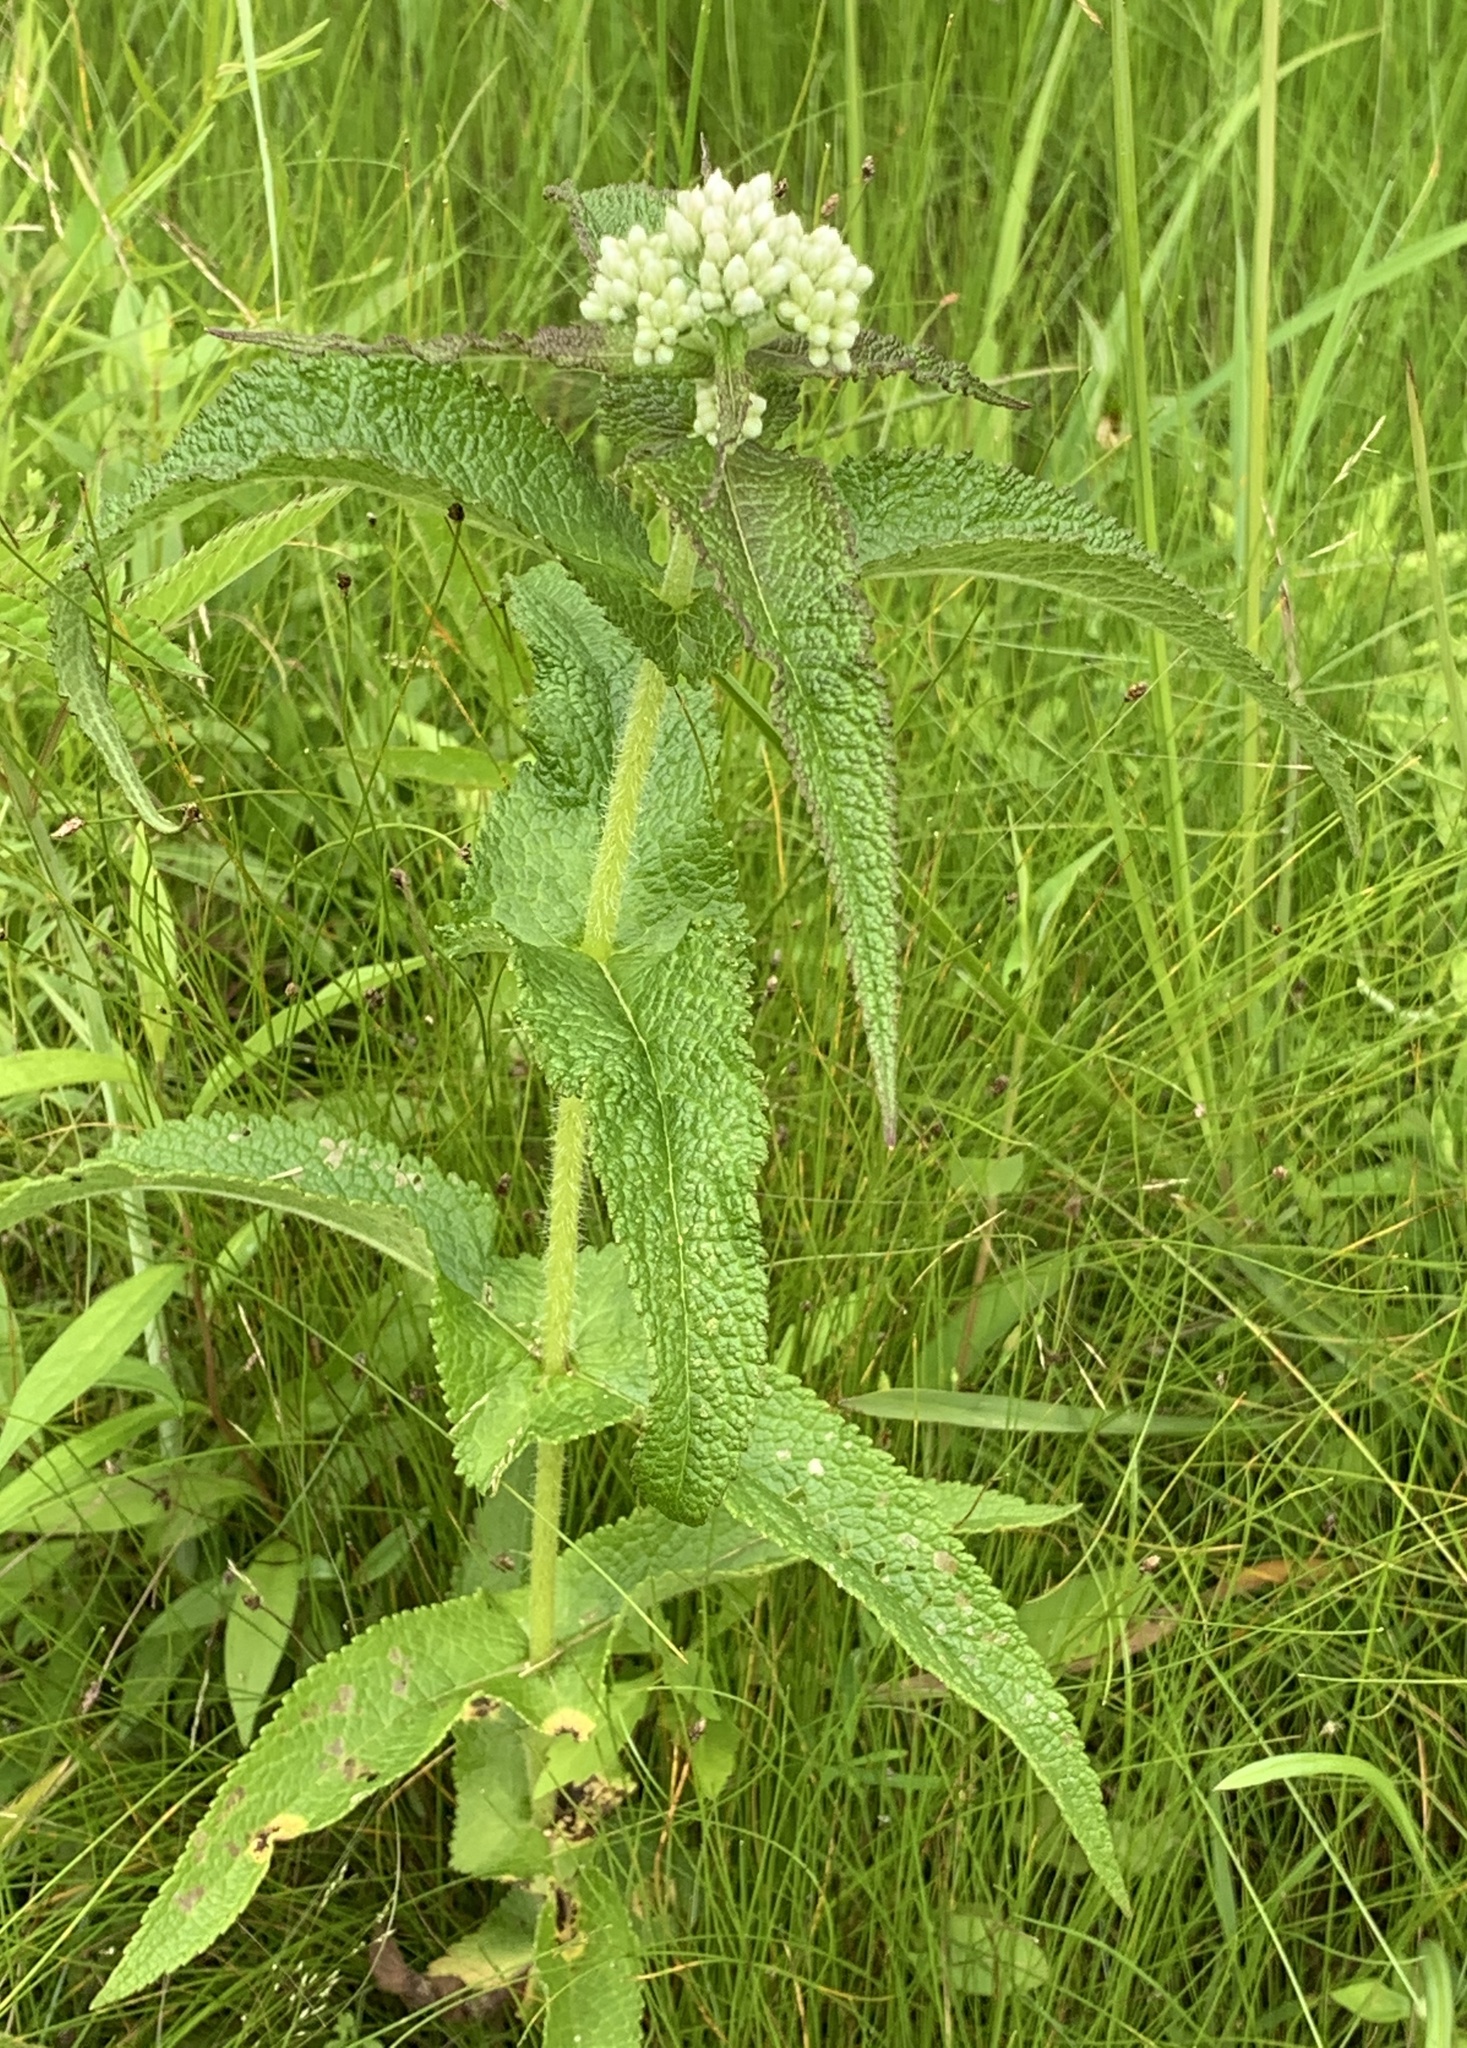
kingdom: Plantae
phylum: Tracheophyta
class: Magnoliopsida
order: Asterales
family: Asteraceae
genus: Eupatorium
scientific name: Eupatorium perfoliatum
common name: Boneset
